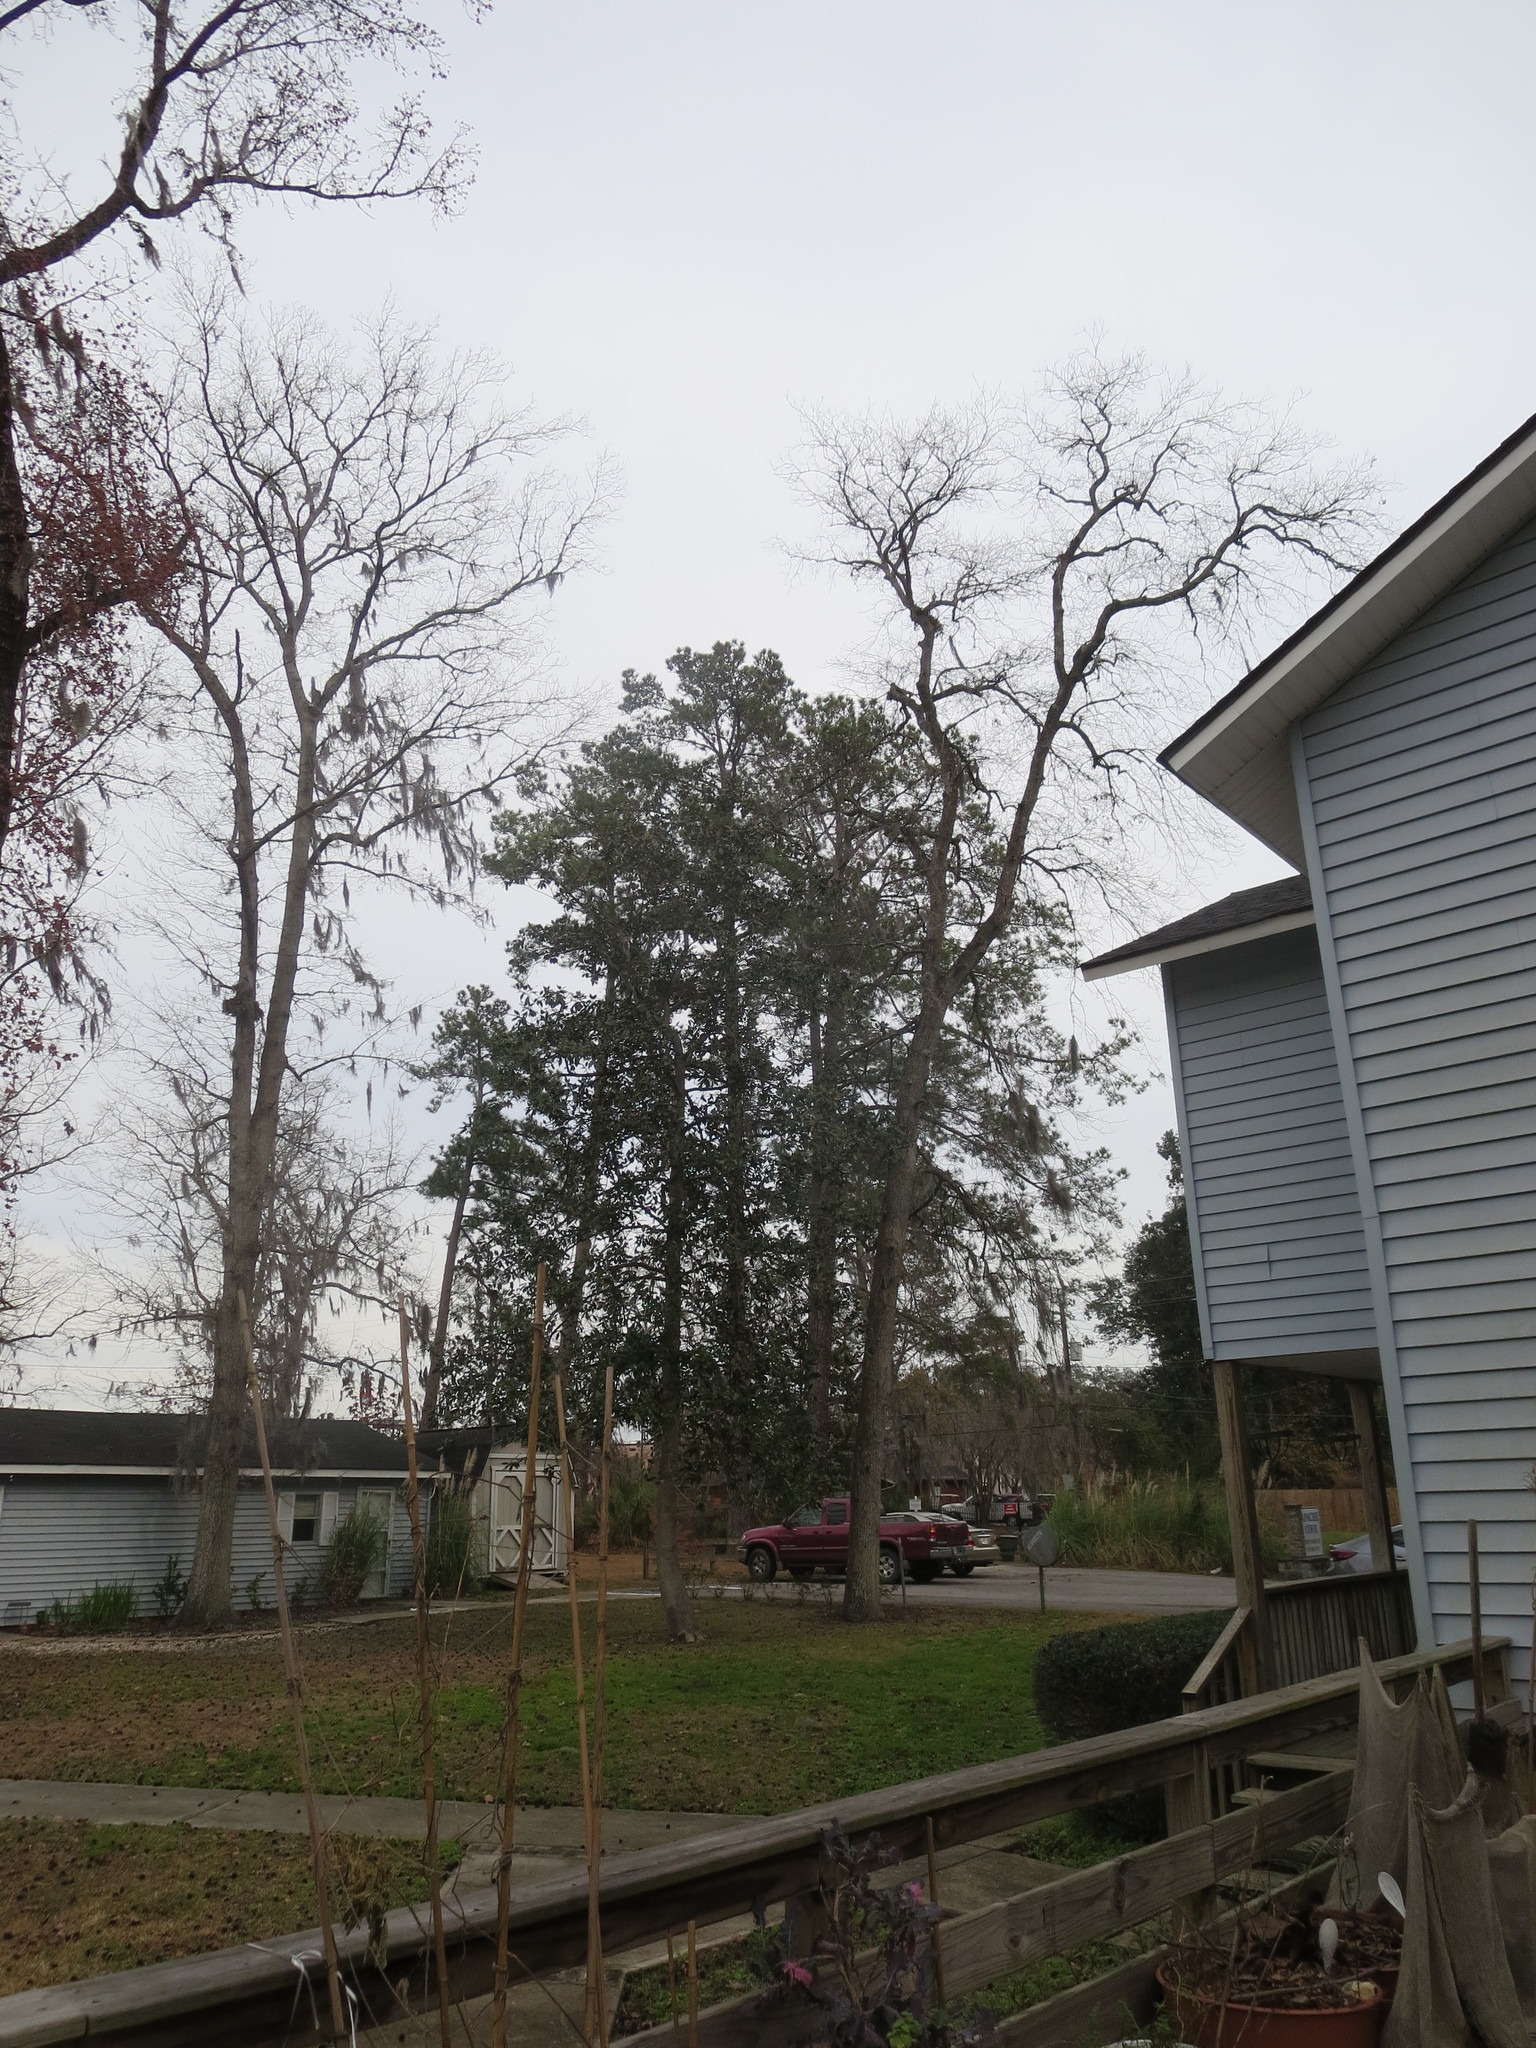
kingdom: Plantae
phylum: Tracheophyta
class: Magnoliopsida
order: Magnoliales
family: Magnoliaceae
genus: Magnolia
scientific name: Magnolia grandiflora
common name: Southern magnolia
